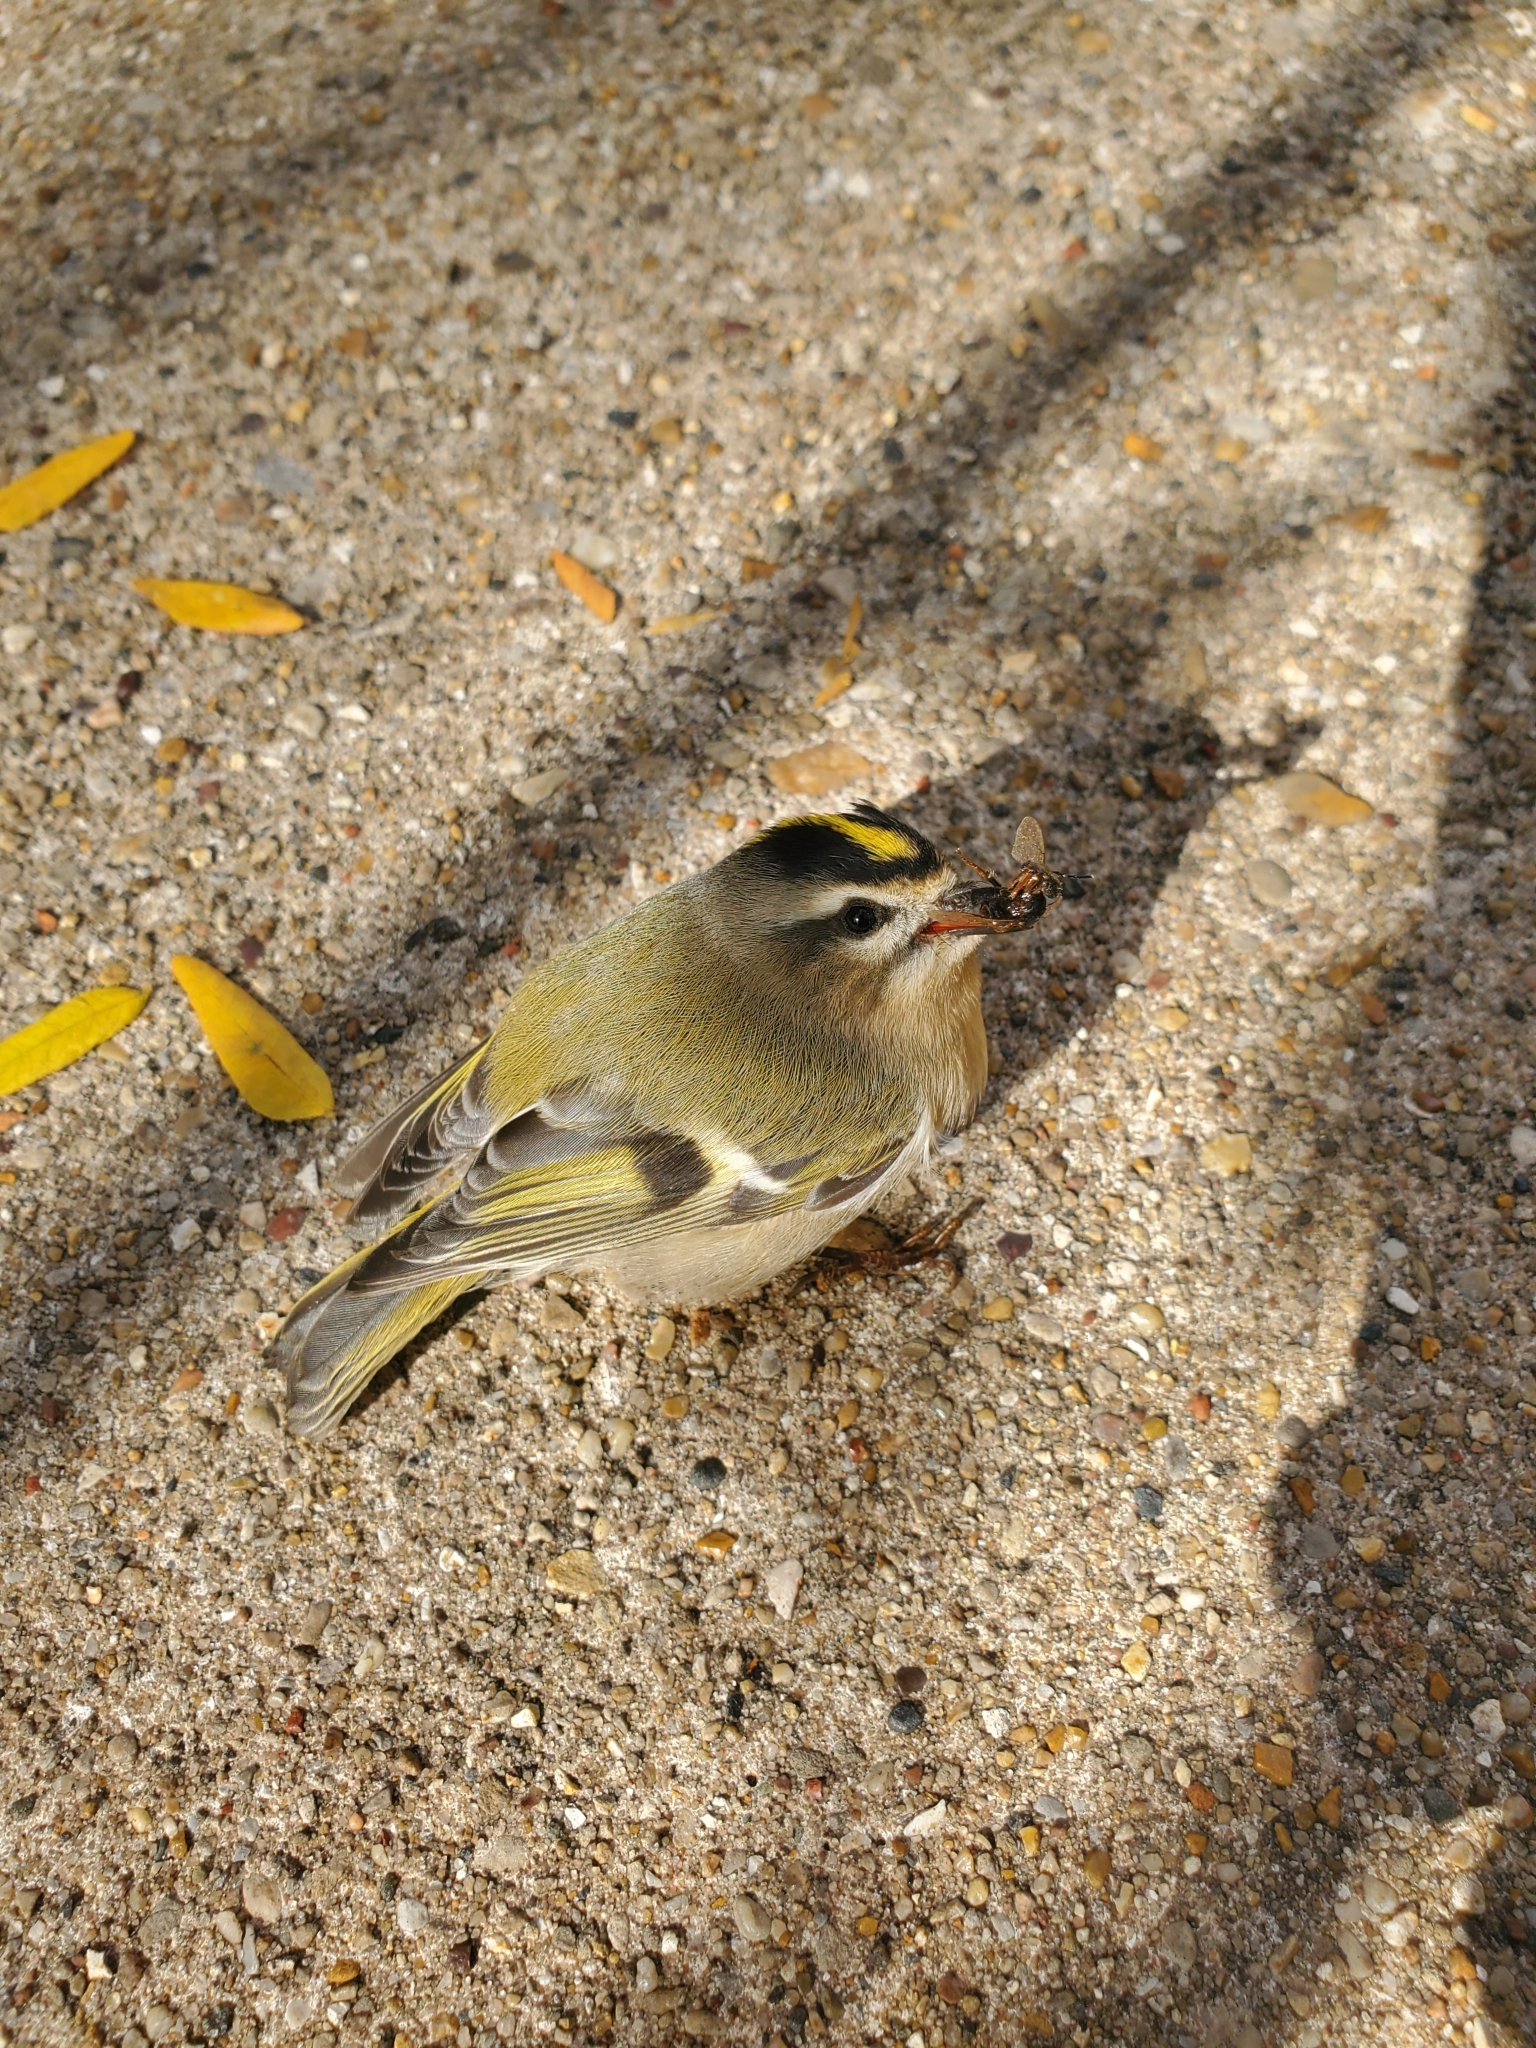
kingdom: Animalia
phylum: Chordata
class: Aves
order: Passeriformes
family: Regulidae
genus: Regulus
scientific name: Regulus satrapa
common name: Golden-crowned kinglet
